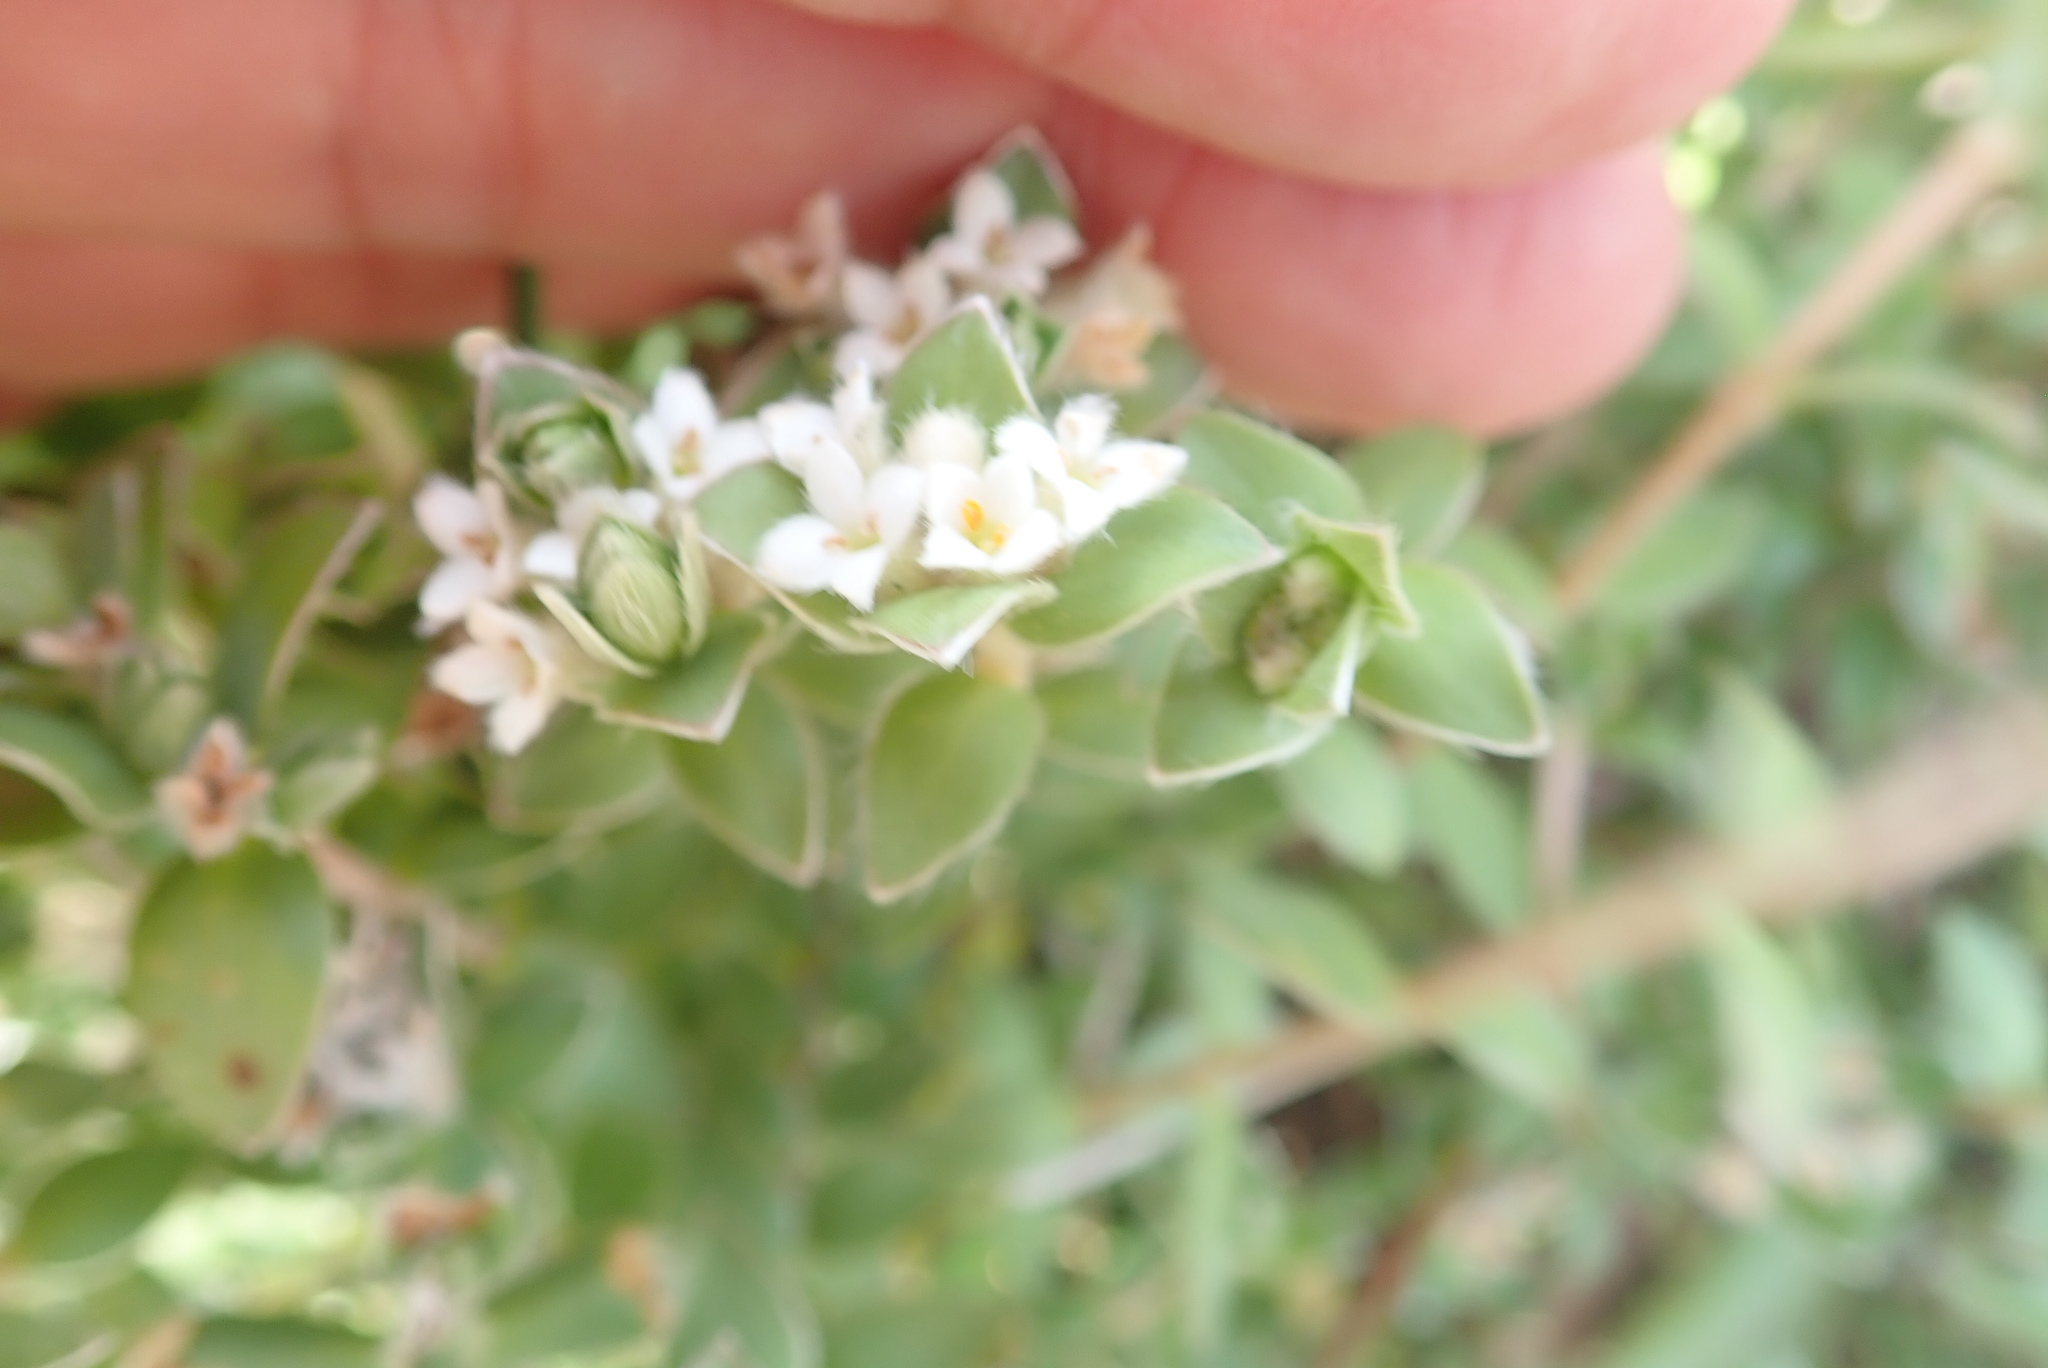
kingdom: Plantae
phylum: Tracheophyta
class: Magnoliopsida
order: Malvales
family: Thymelaeaceae
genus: Pimelea
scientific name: Pimelea villosa
